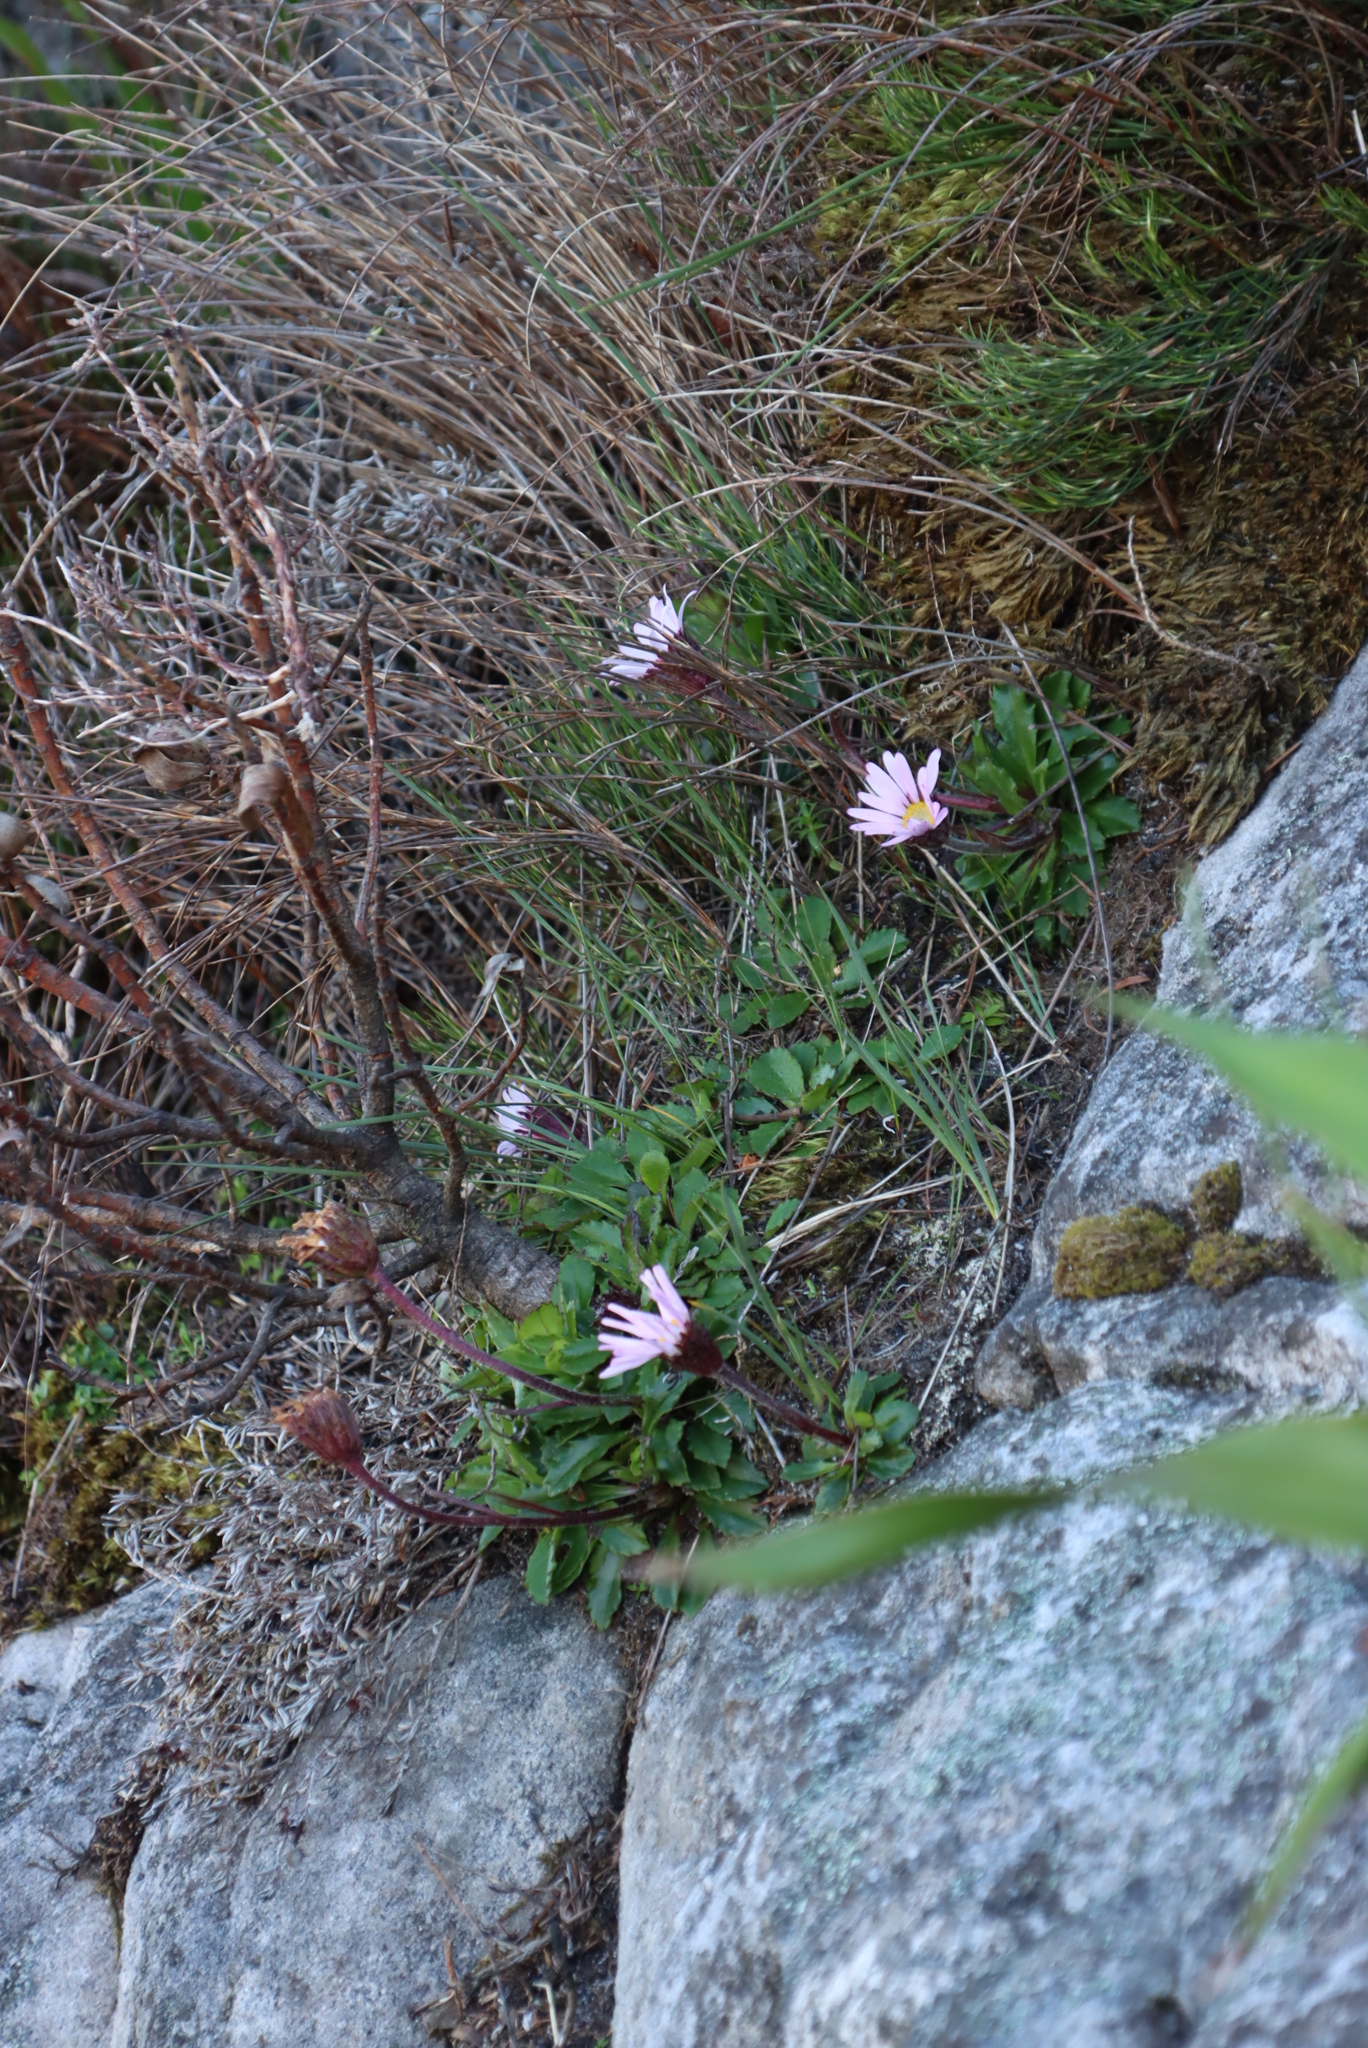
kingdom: Plantae
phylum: Tracheophyta
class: Magnoliopsida
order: Asterales
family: Asteraceae
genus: Zyrphelis
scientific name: Zyrphelis crenata
